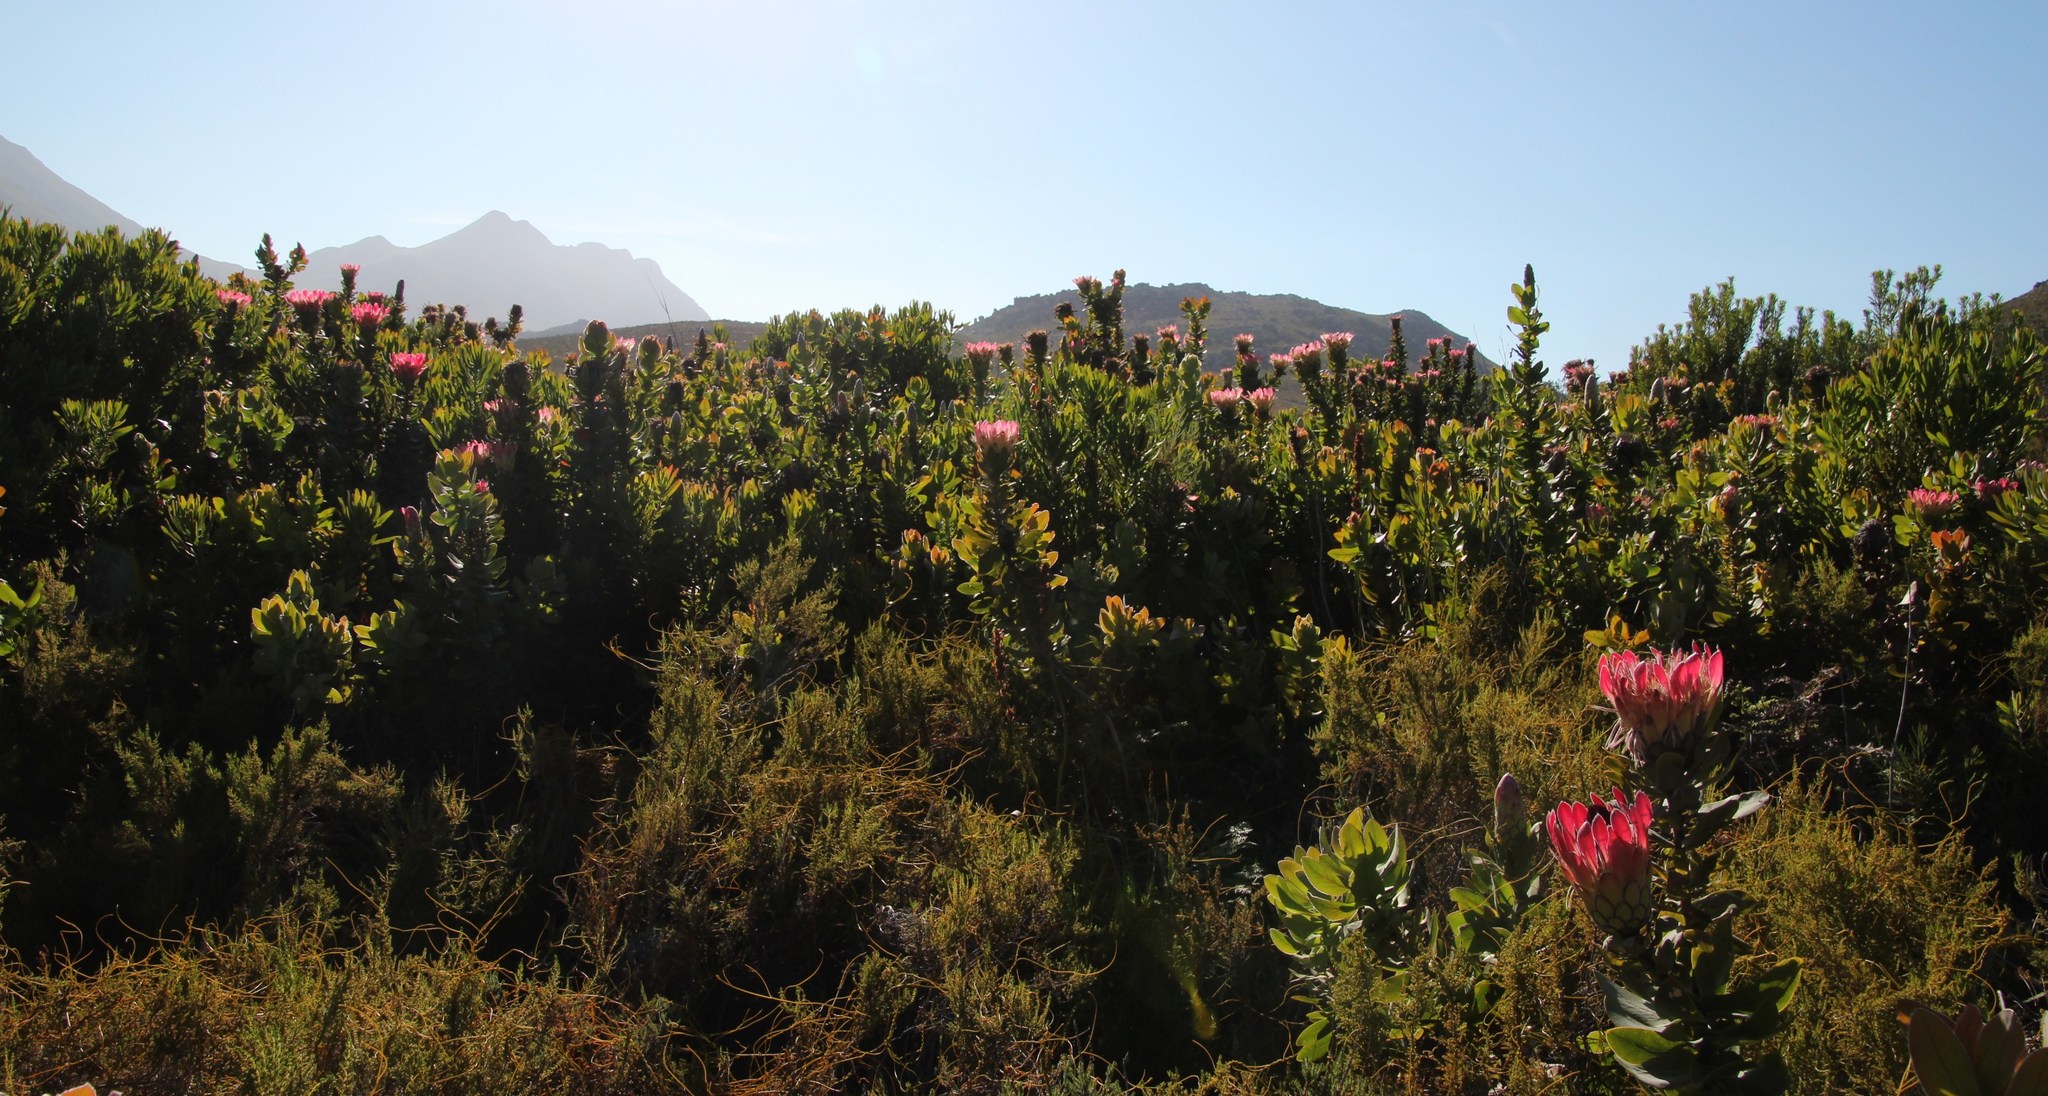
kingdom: Plantae
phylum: Tracheophyta
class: Magnoliopsida
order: Proteales
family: Proteaceae
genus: Protea
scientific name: Protea eximia
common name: Broad-leaved sugarbush
